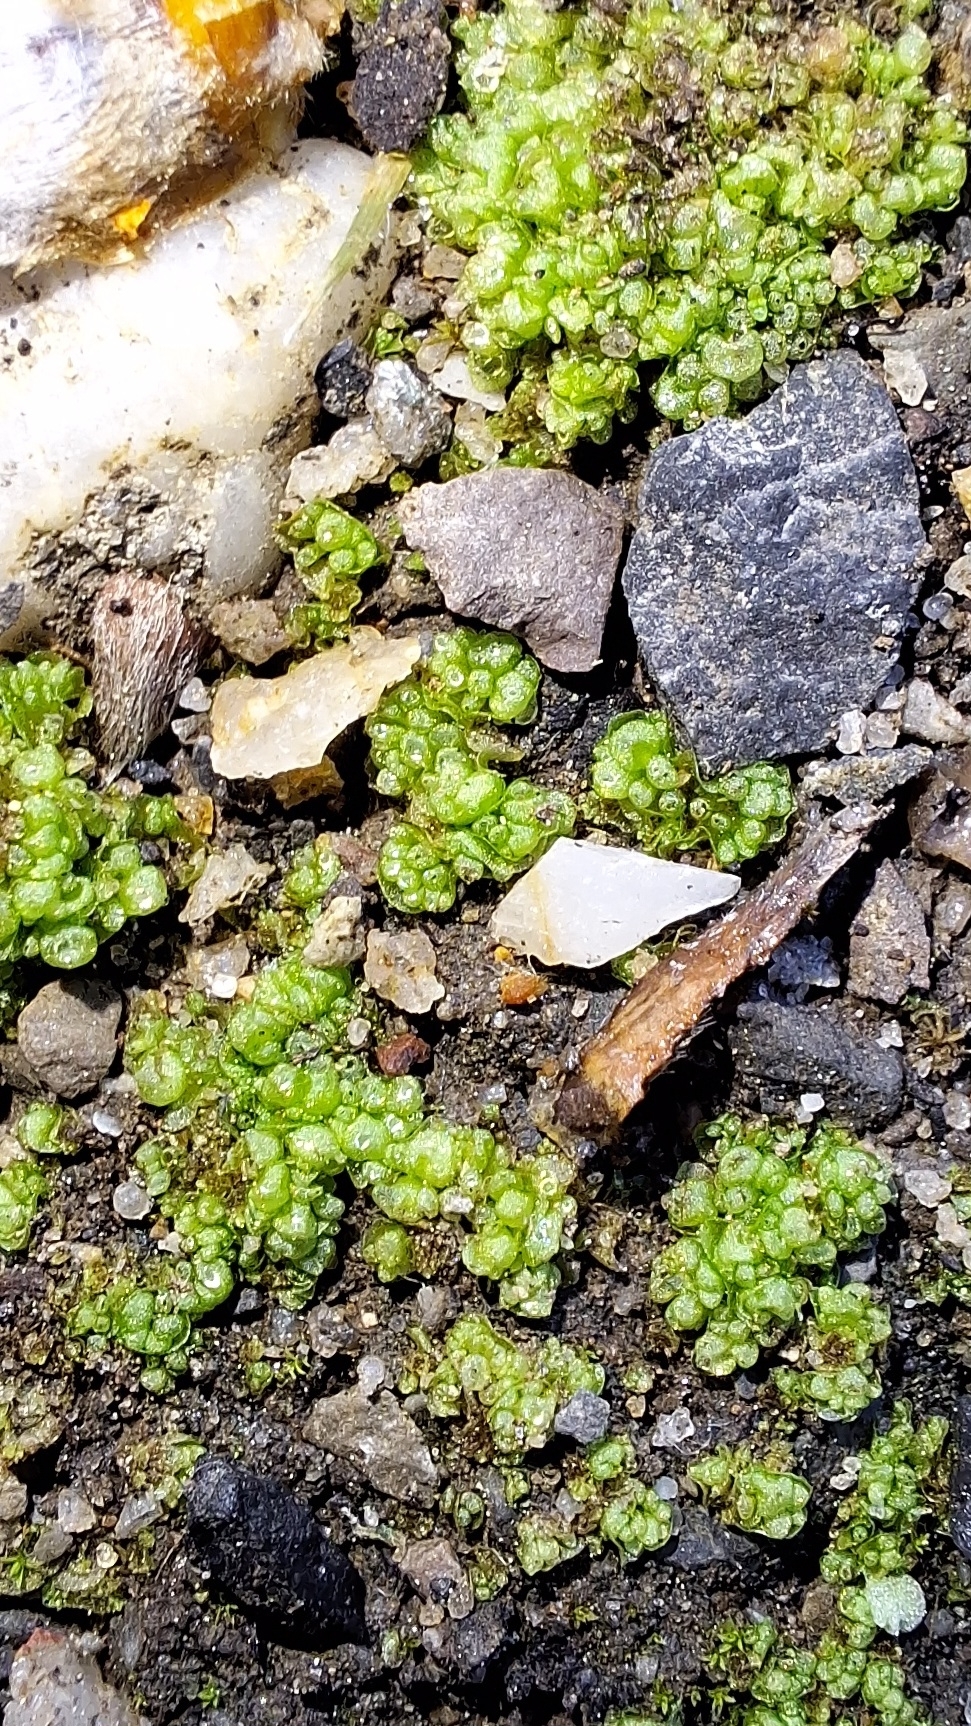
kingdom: Plantae
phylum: Marchantiophyta
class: Marchantiopsida
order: Sphaerocarpales
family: Sphaerocarpaceae
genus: Sphaerocarpos
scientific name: Sphaerocarpos texanus
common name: Texas balloonwort
